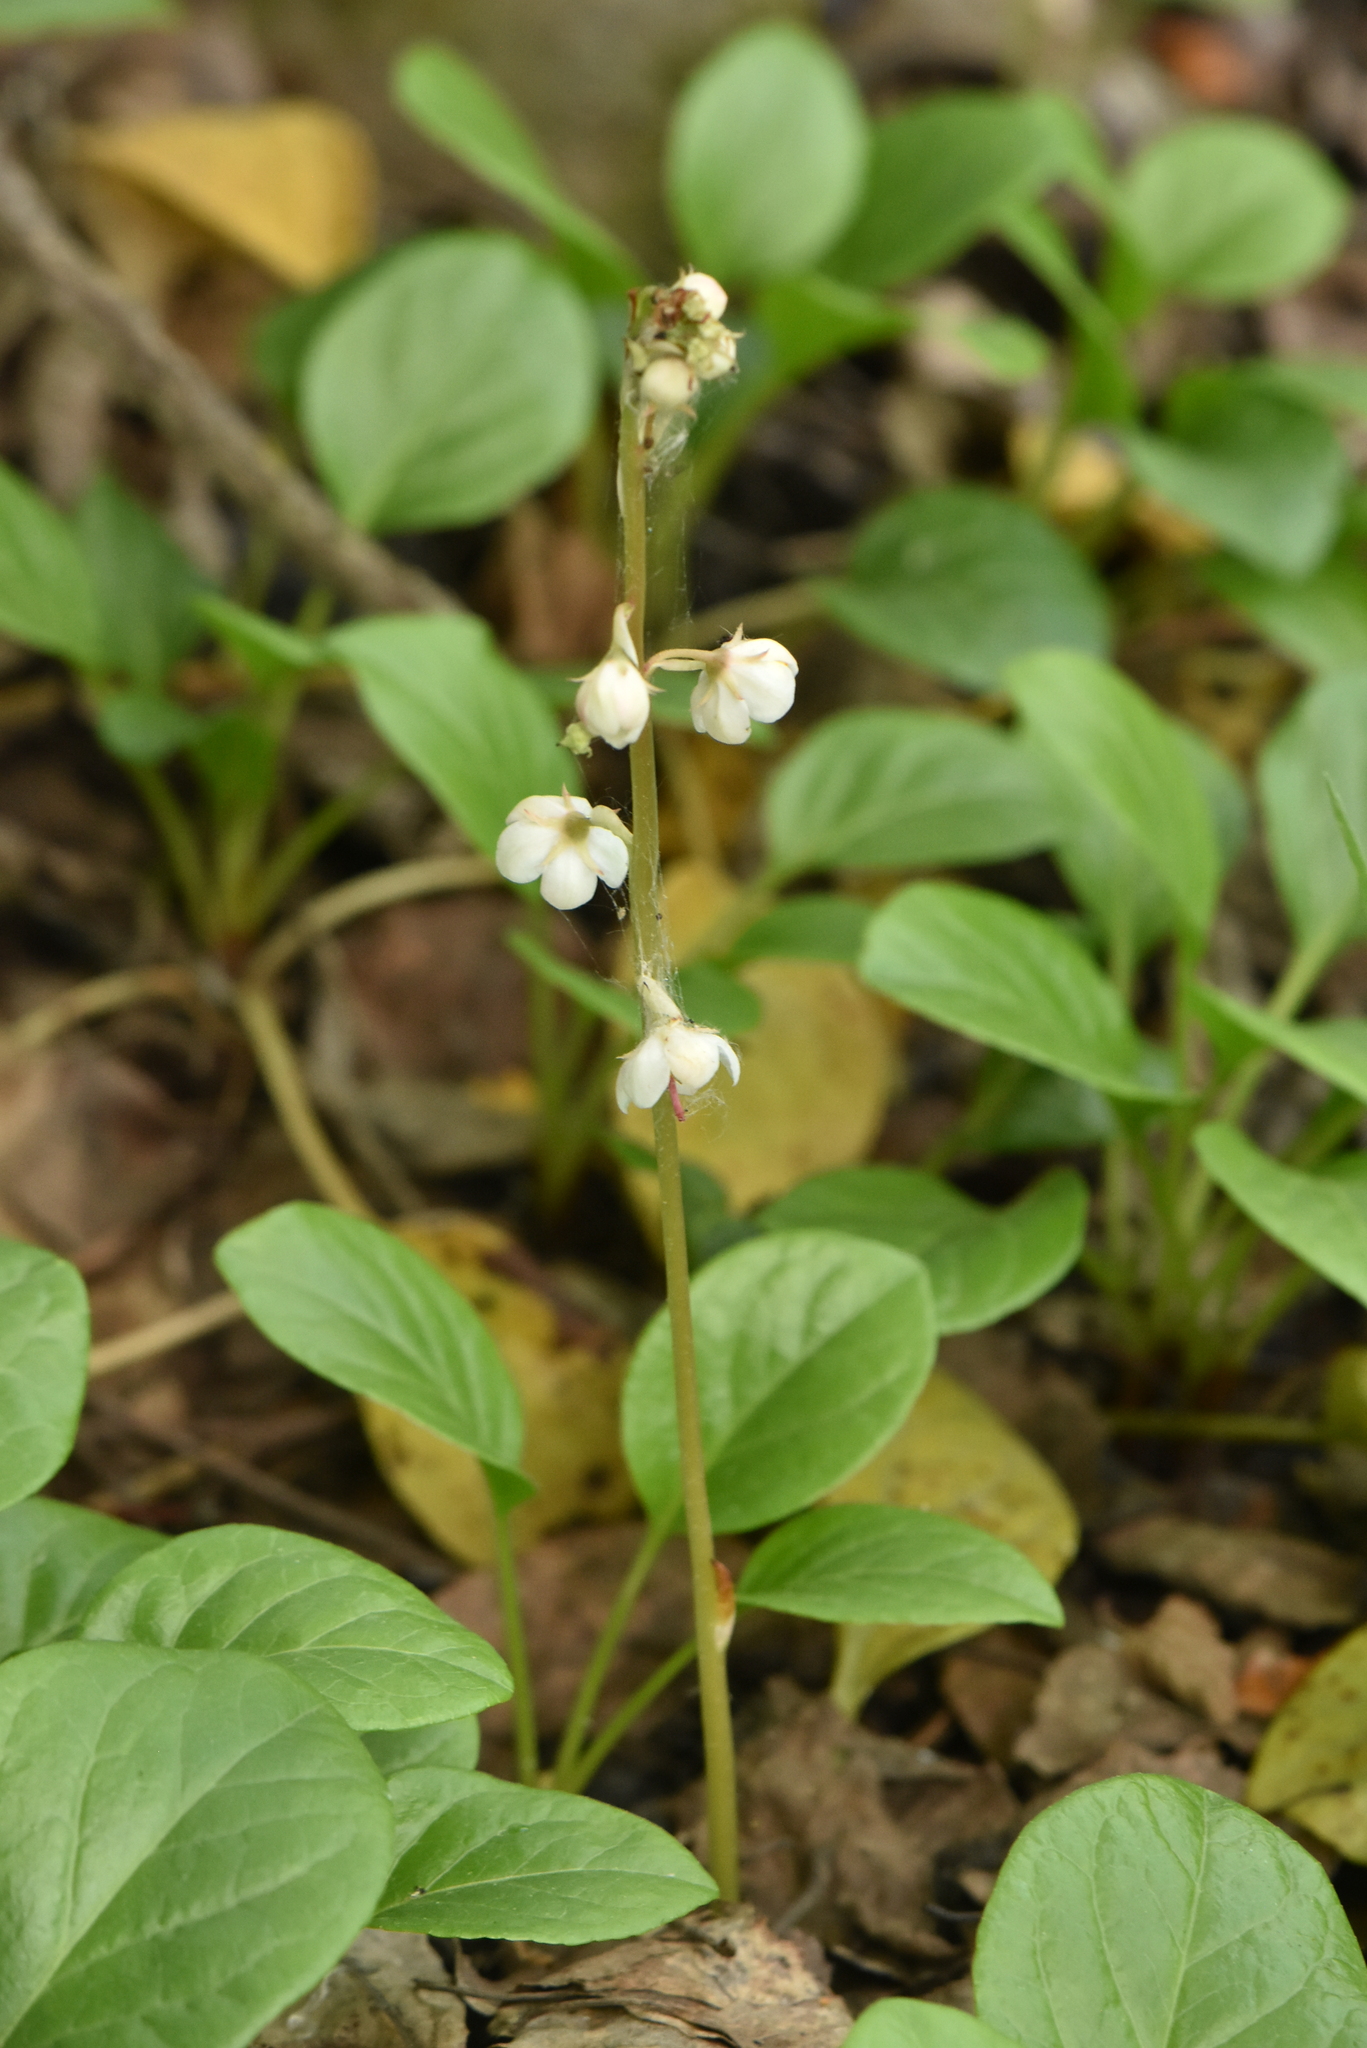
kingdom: Plantae
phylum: Tracheophyta
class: Magnoliopsida
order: Ericales
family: Ericaceae
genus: Pyrola
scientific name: Pyrola rotundifolia
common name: Round-leaved wintergreen
